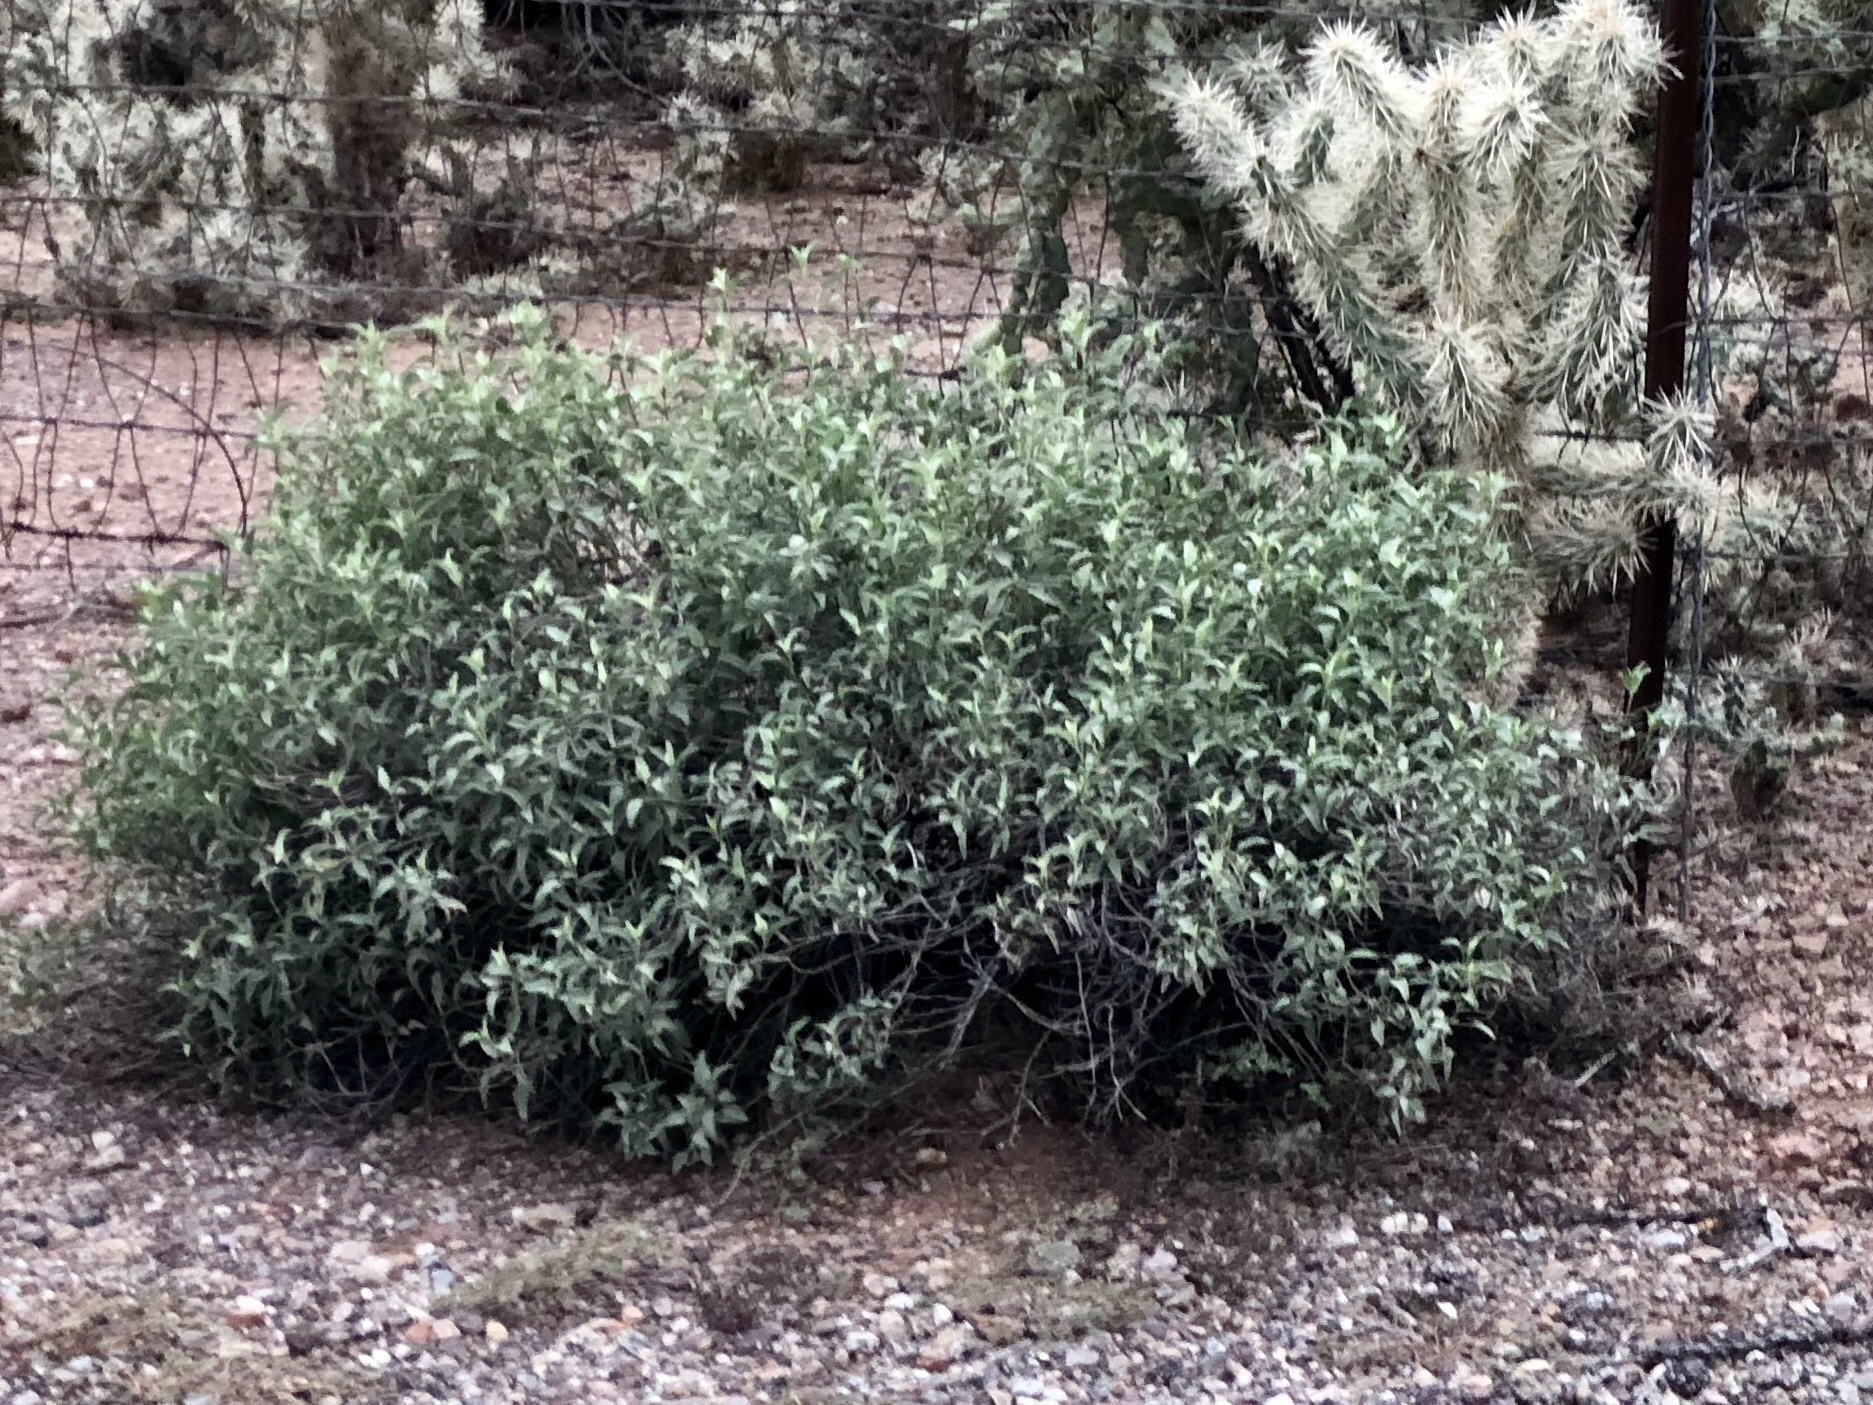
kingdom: Plantae
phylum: Tracheophyta
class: Magnoliopsida
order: Asterales
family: Asteraceae
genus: Ambrosia
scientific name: Ambrosia deltoidea
